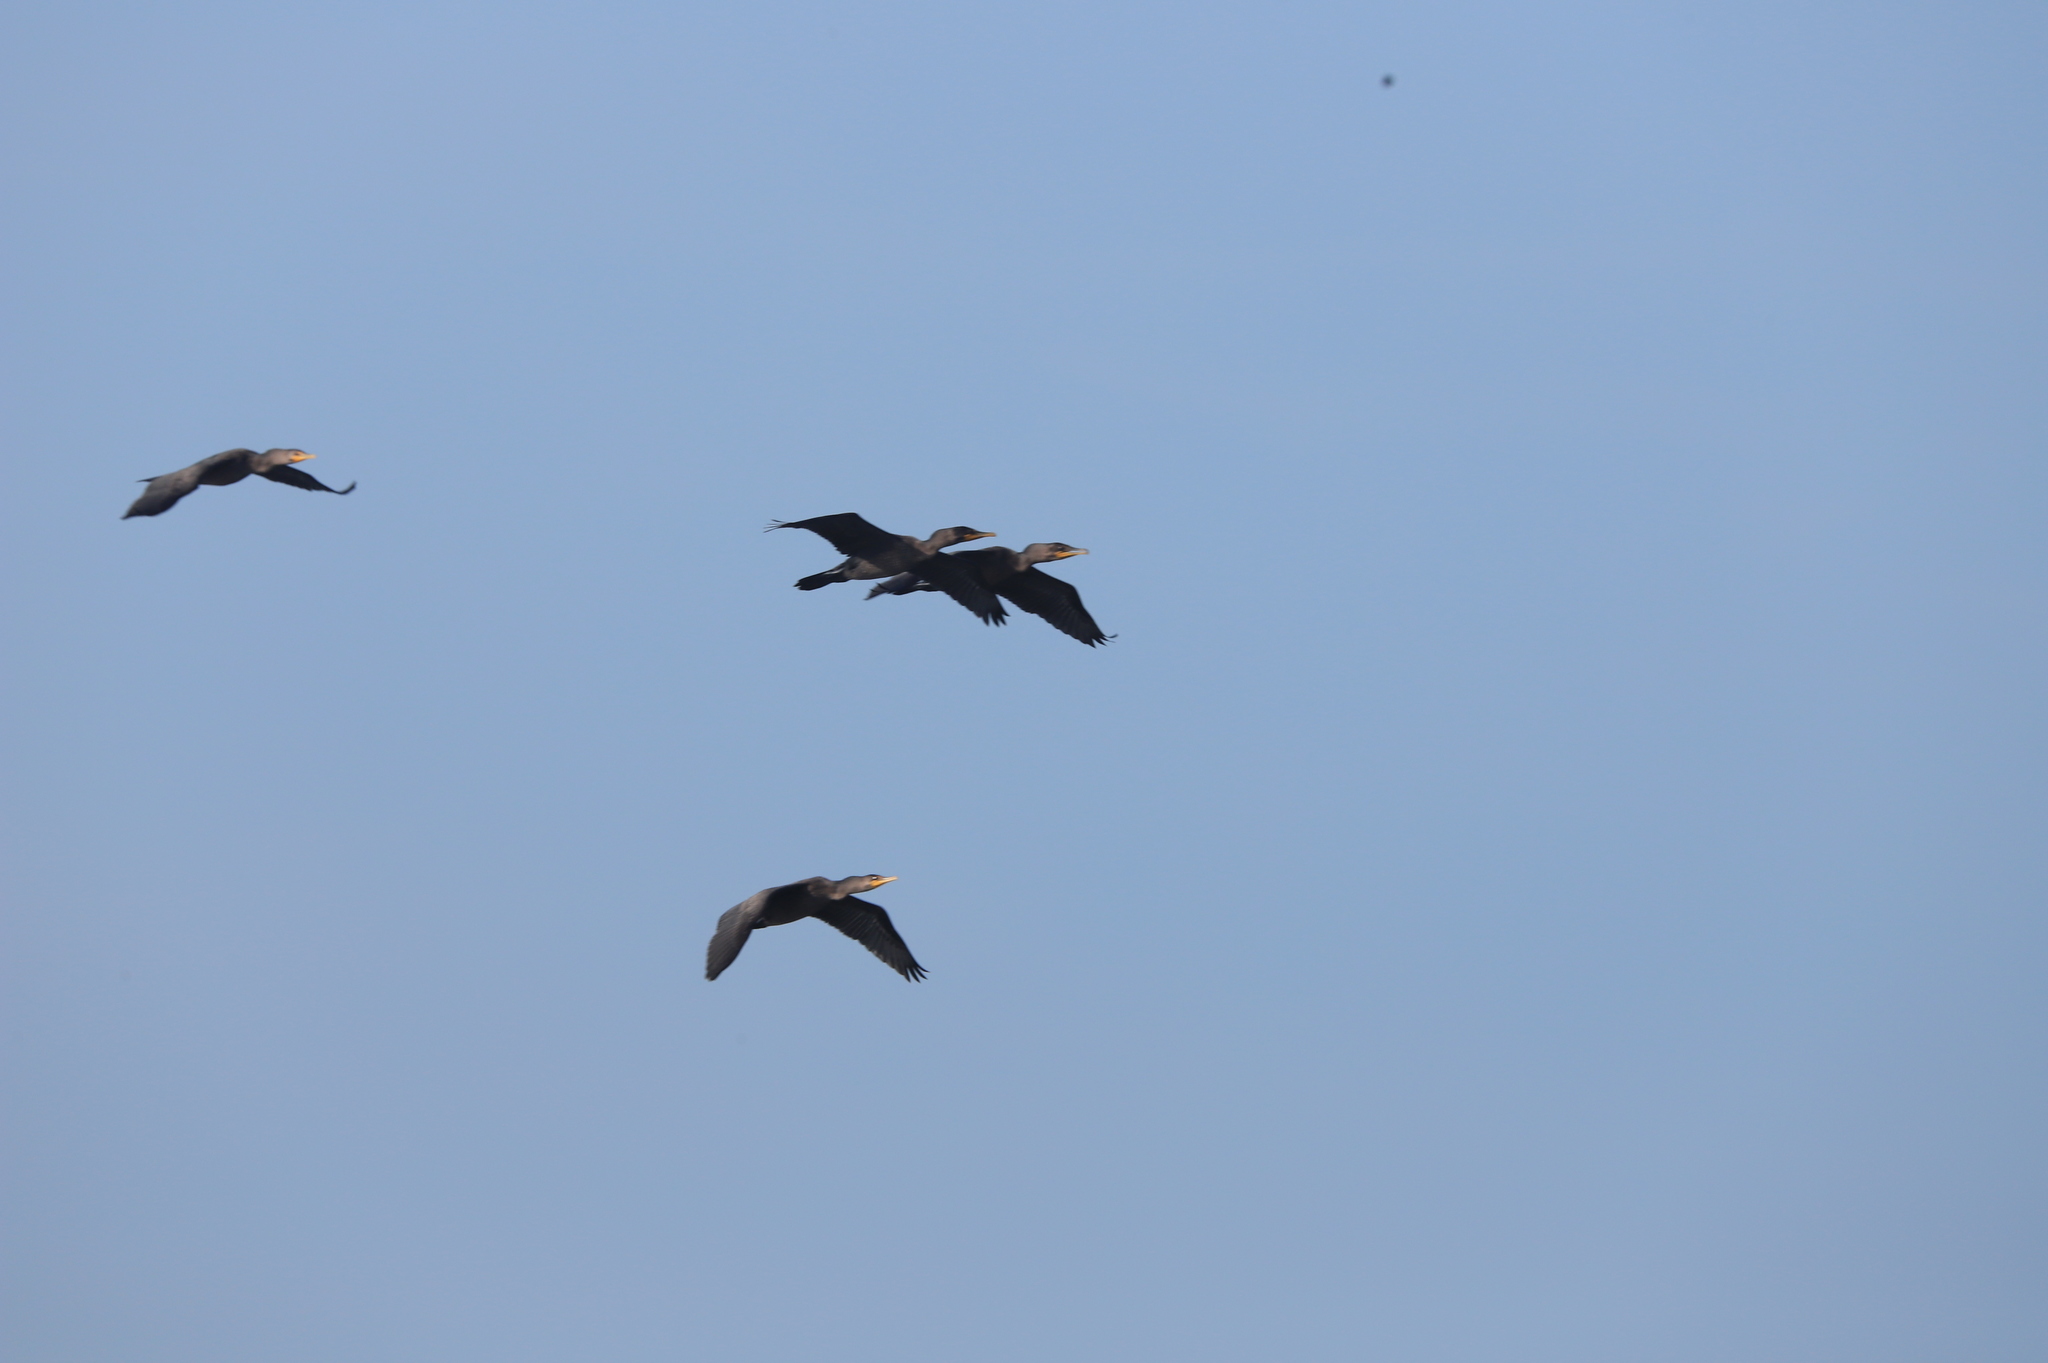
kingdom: Animalia
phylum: Chordata
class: Aves
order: Suliformes
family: Phalacrocoracidae
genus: Phalacrocorax
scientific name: Phalacrocorax auritus
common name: Double-crested cormorant
